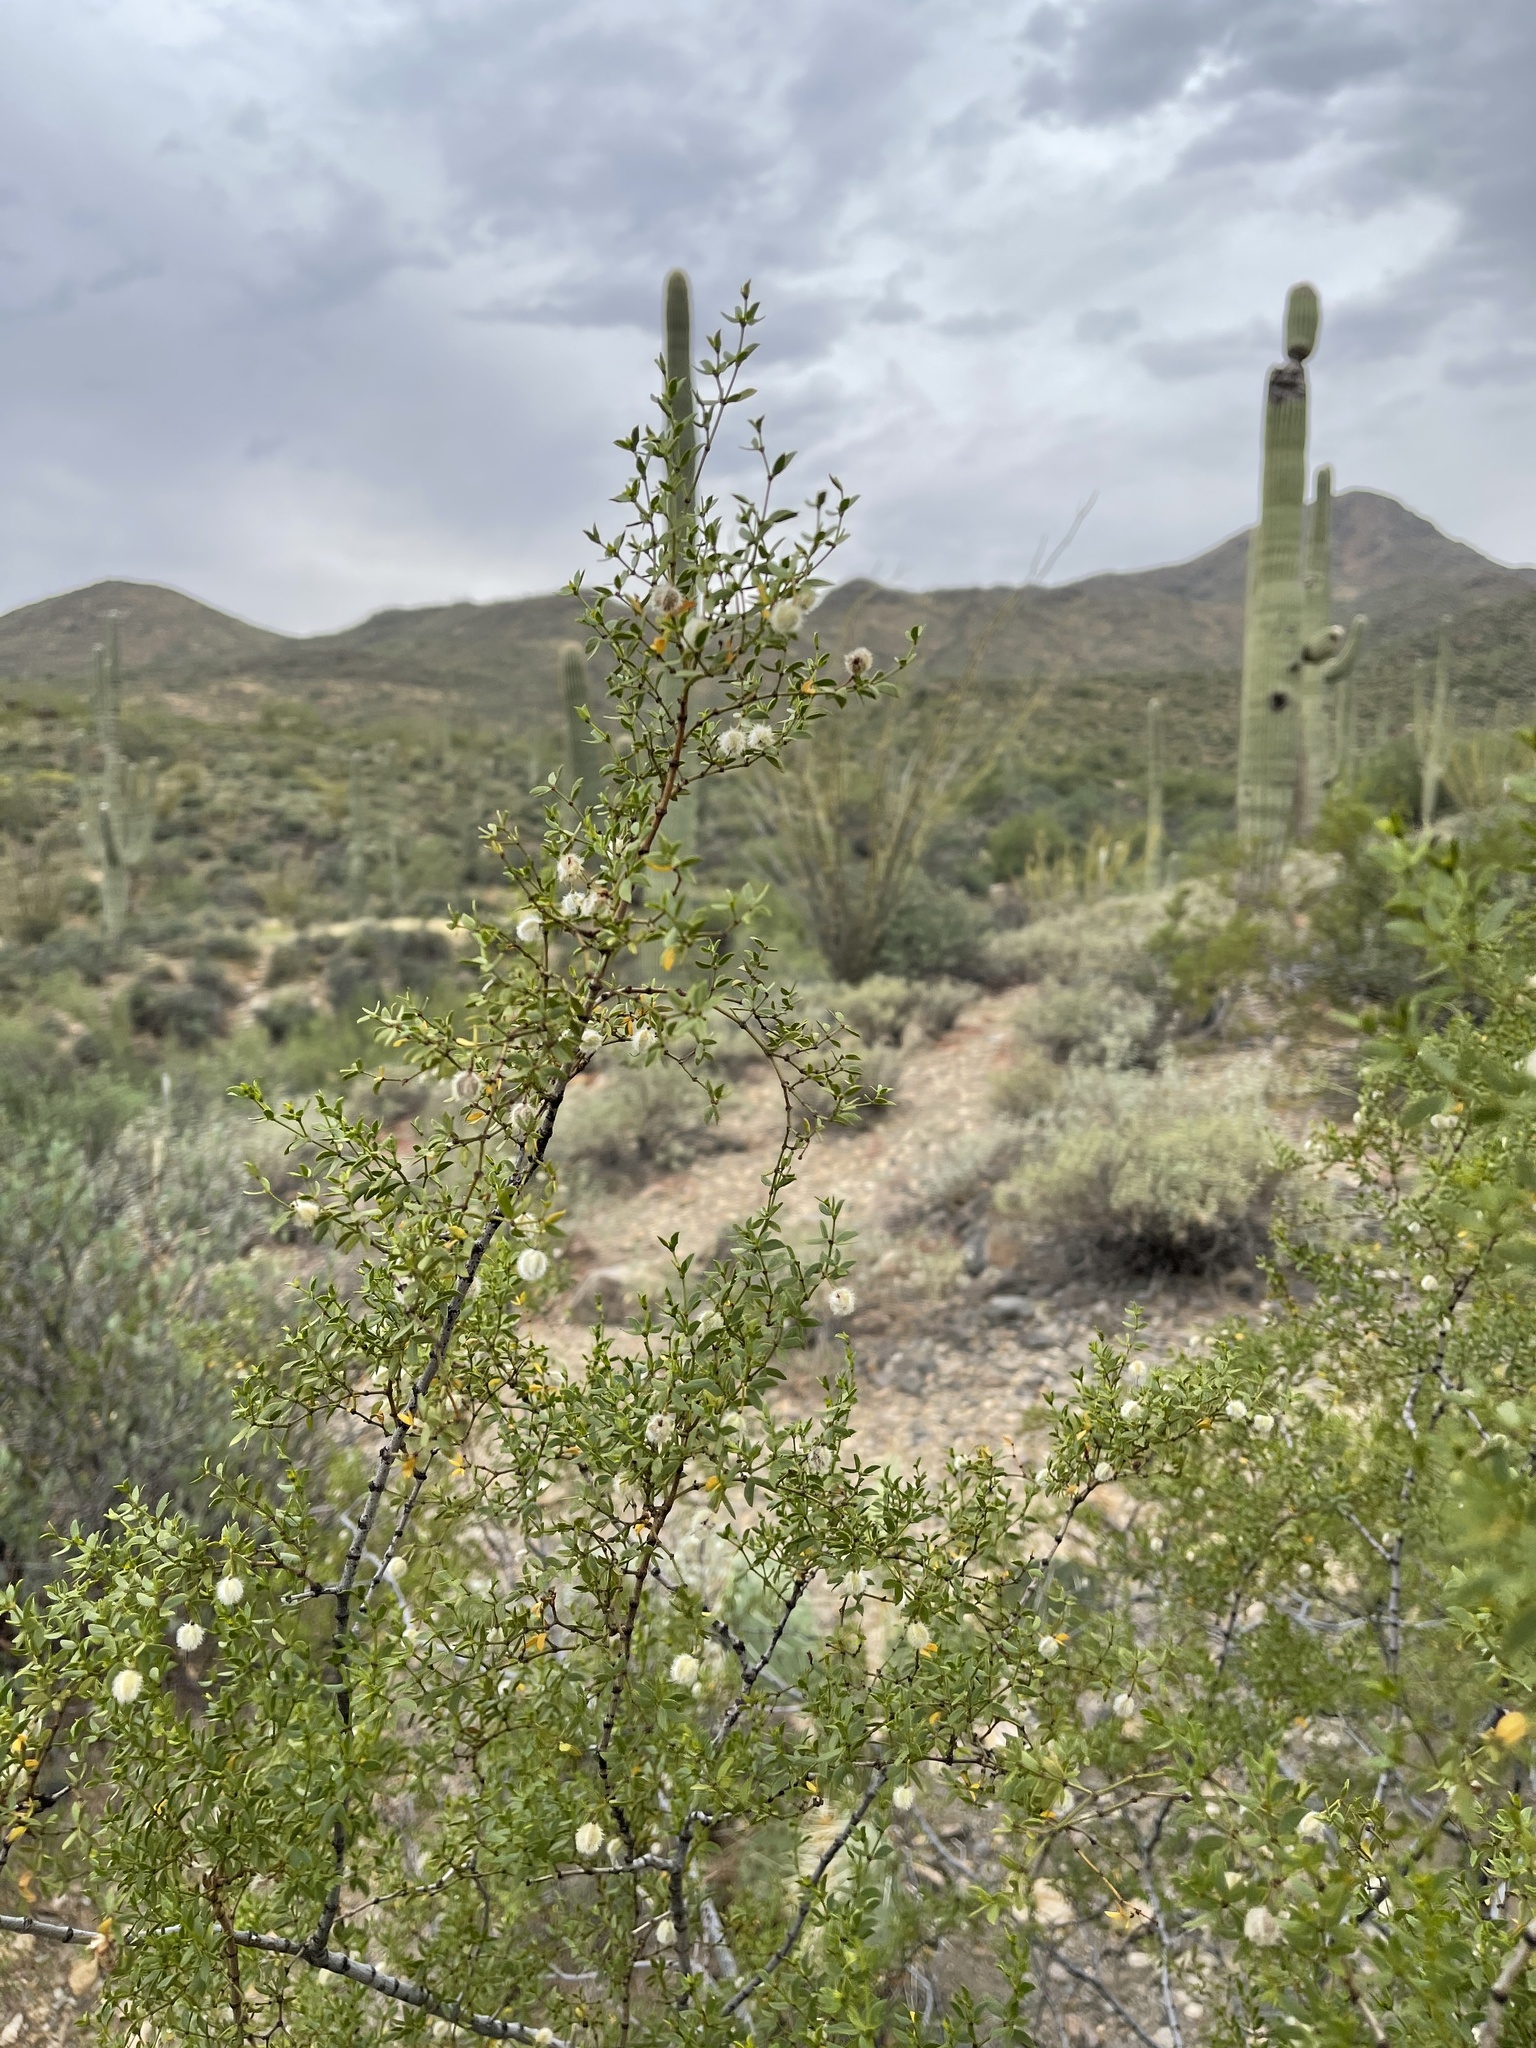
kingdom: Plantae
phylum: Tracheophyta
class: Magnoliopsida
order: Zygophyllales
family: Zygophyllaceae
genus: Larrea
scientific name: Larrea tridentata
